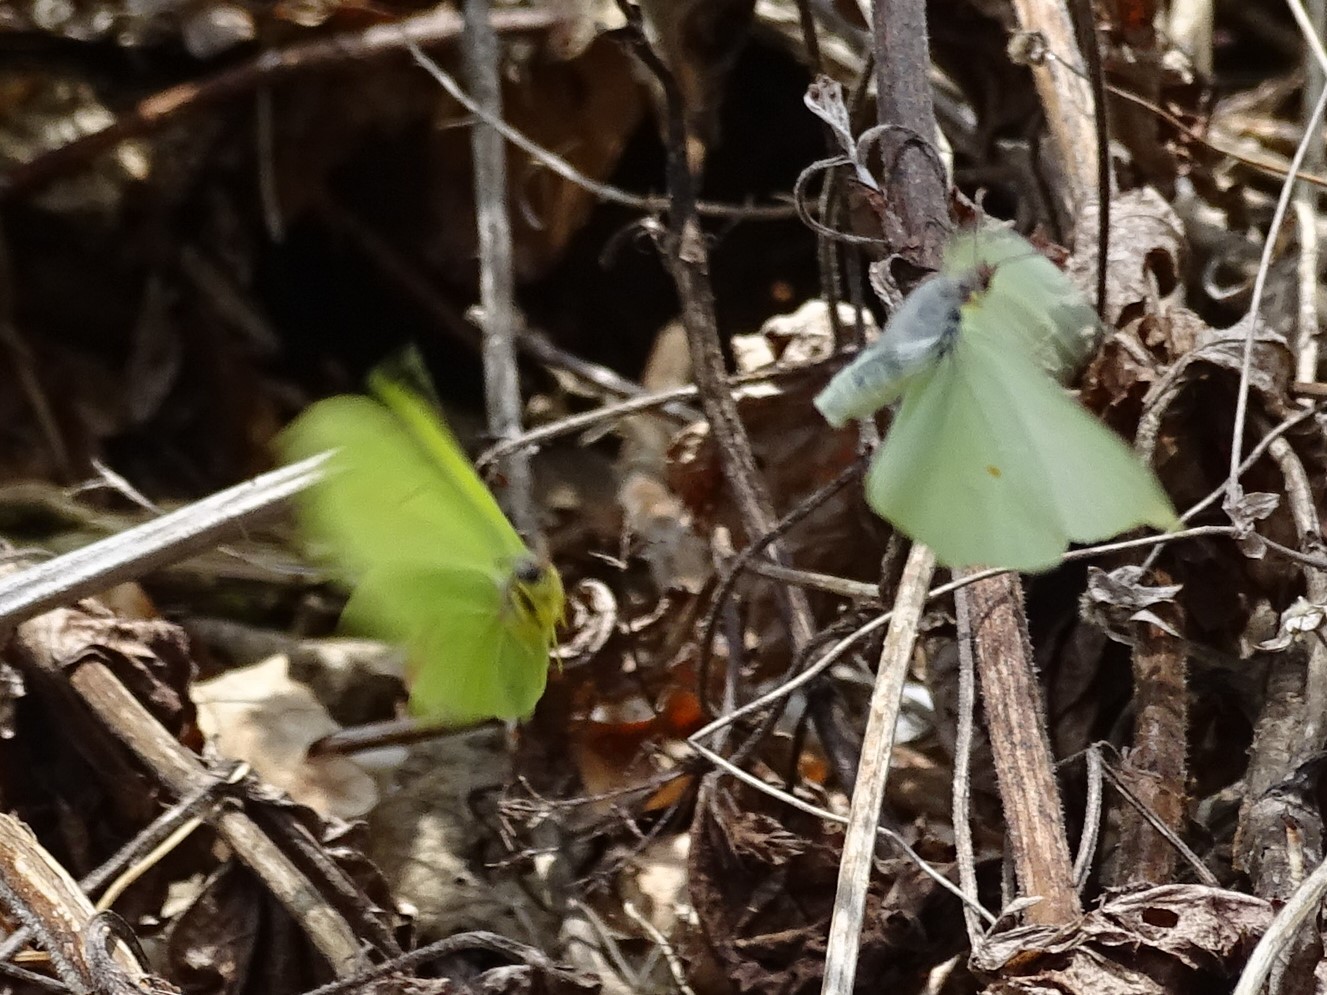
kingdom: Animalia
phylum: Arthropoda
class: Insecta
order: Lepidoptera
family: Pieridae
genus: Gonepteryx
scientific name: Gonepteryx rhamni
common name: Brimstone
